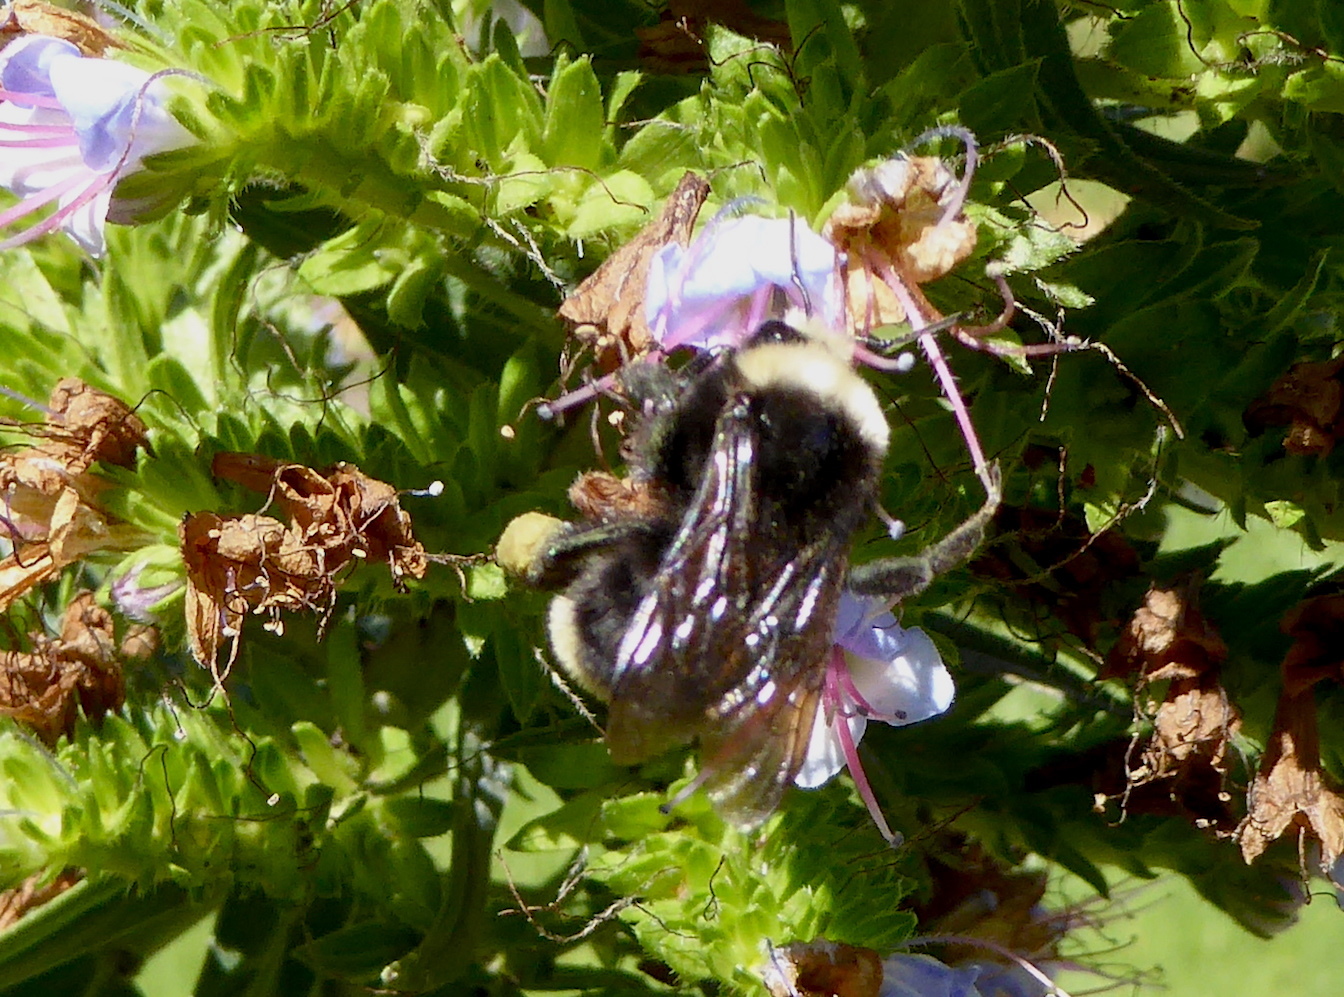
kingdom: Animalia
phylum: Arthropoda
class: Insecta
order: Hymenoptera
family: Apidae
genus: Pyrobombus
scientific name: Pyrobombus
